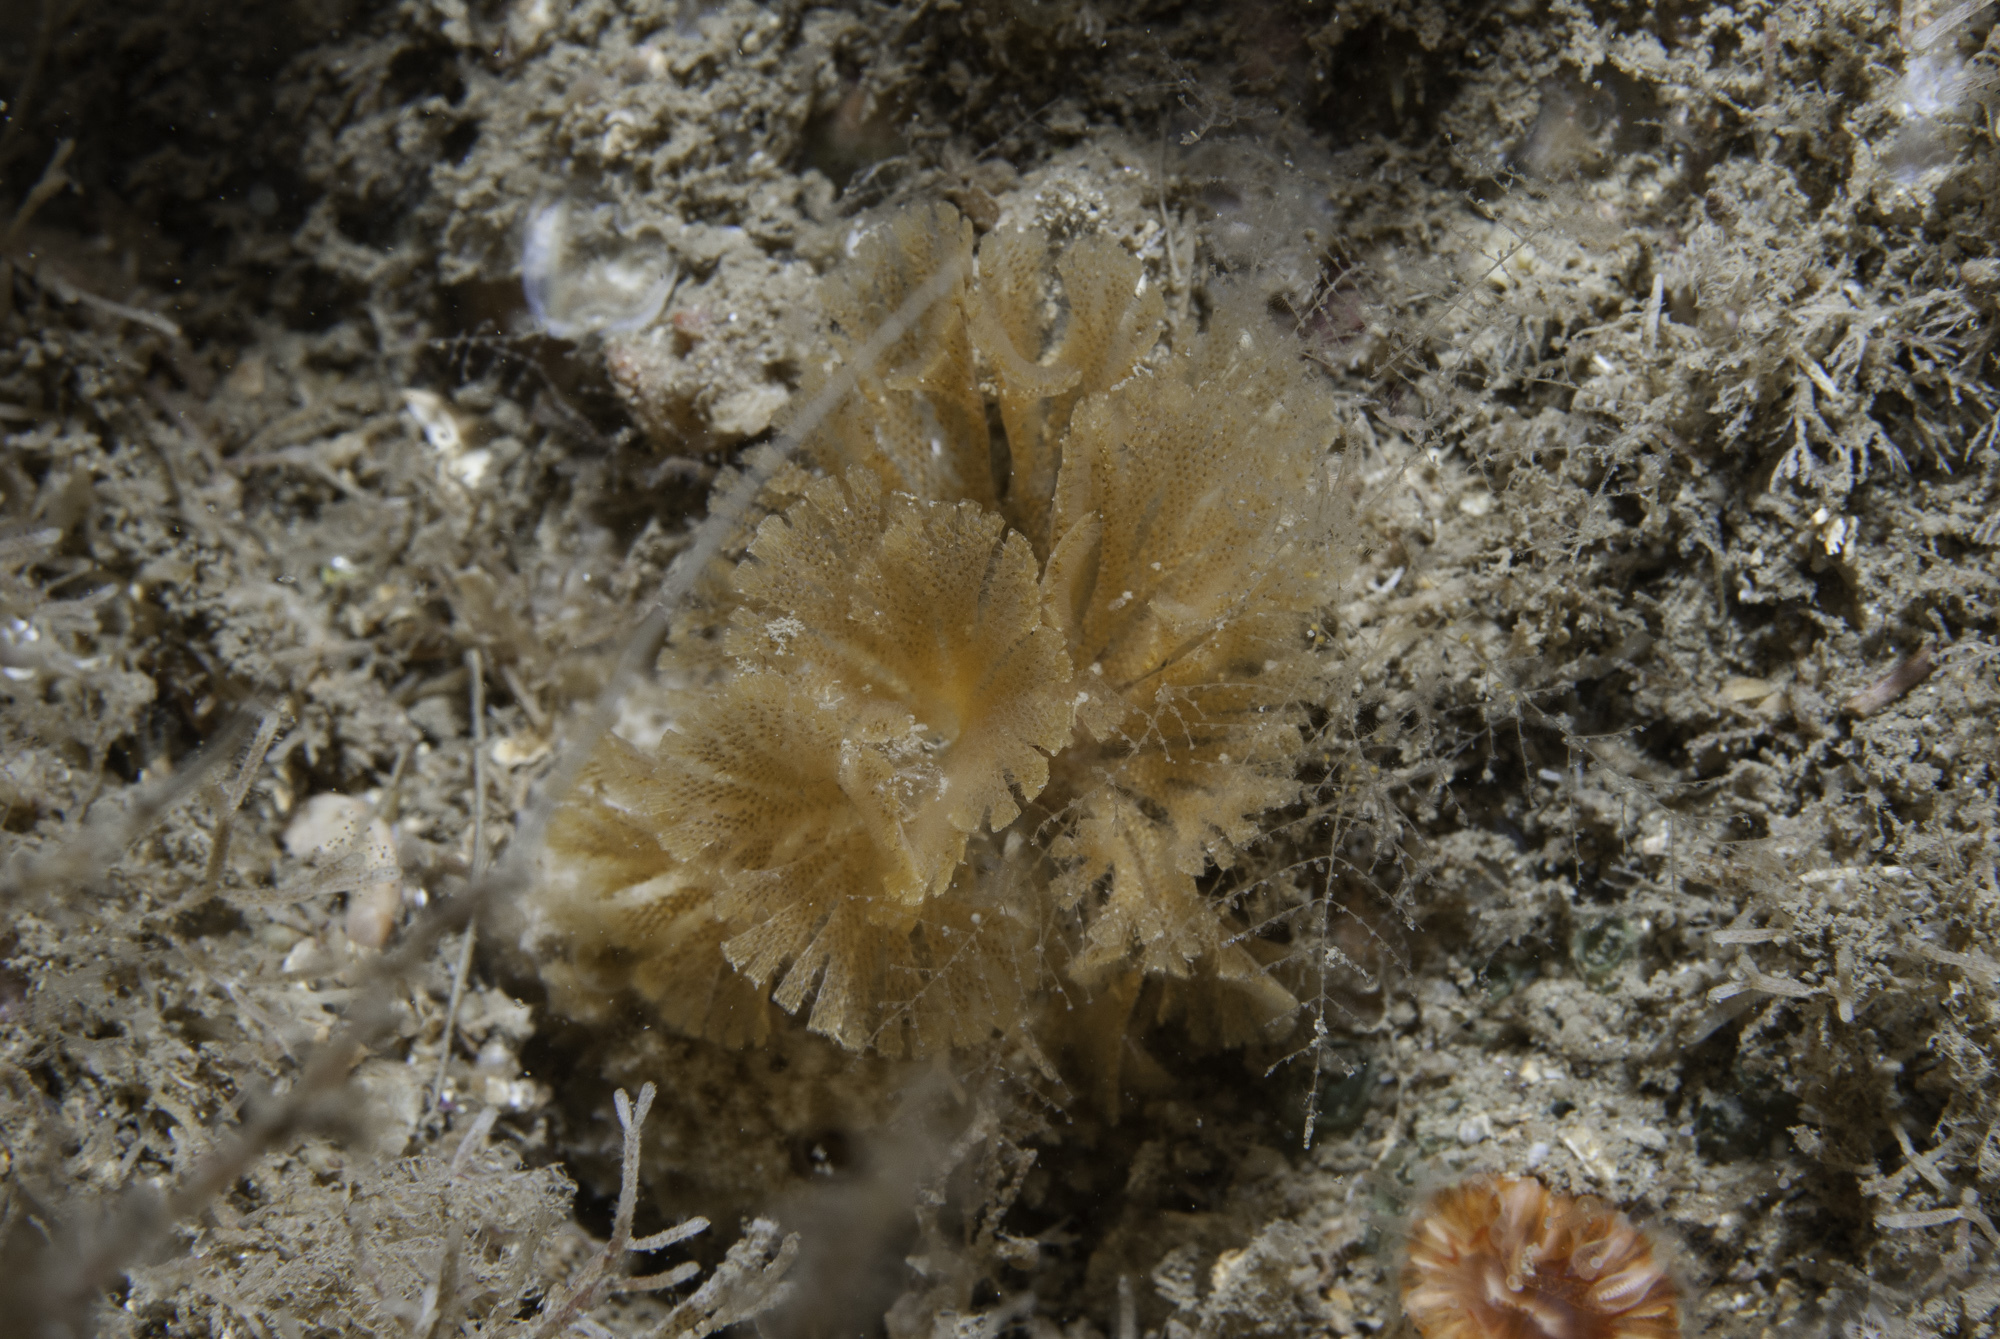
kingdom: Animalia
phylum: Bryozoa
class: Gymnolaemata
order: Cheilostomatida
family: Bugulidae
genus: Bugulina
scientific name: Bugulina flabellata
